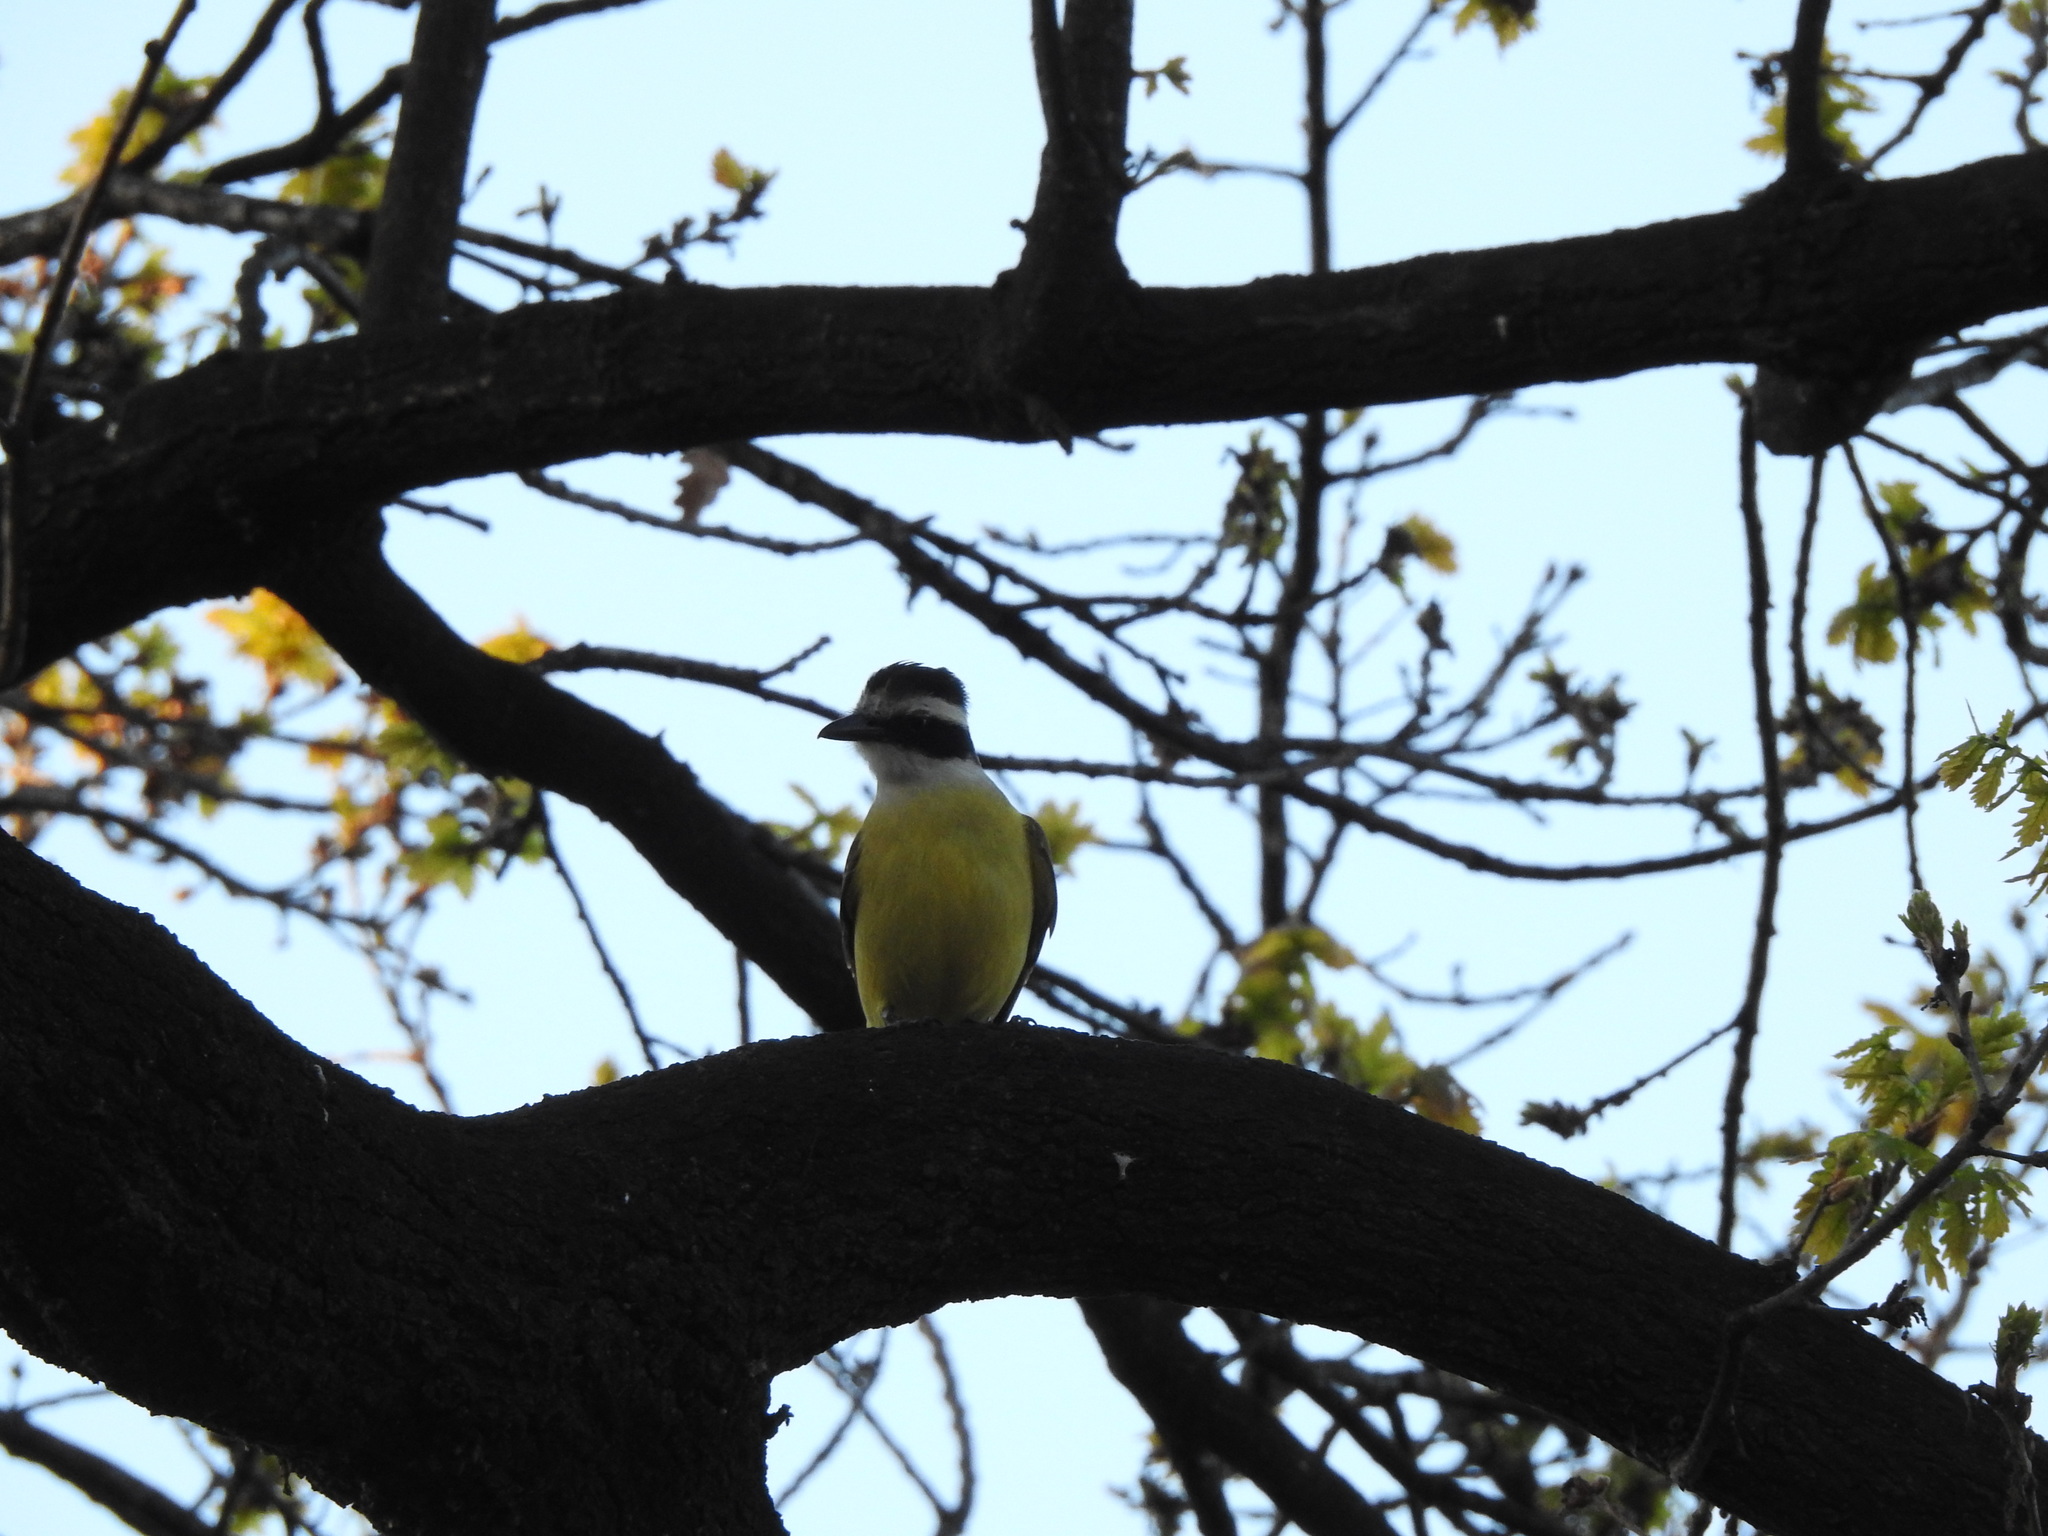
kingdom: Animalia
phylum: Chordata
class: Aves
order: Passeriformes
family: Tyrannidae
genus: Pitangus
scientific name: Pitangus sulphuratus
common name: Great kiskadee
